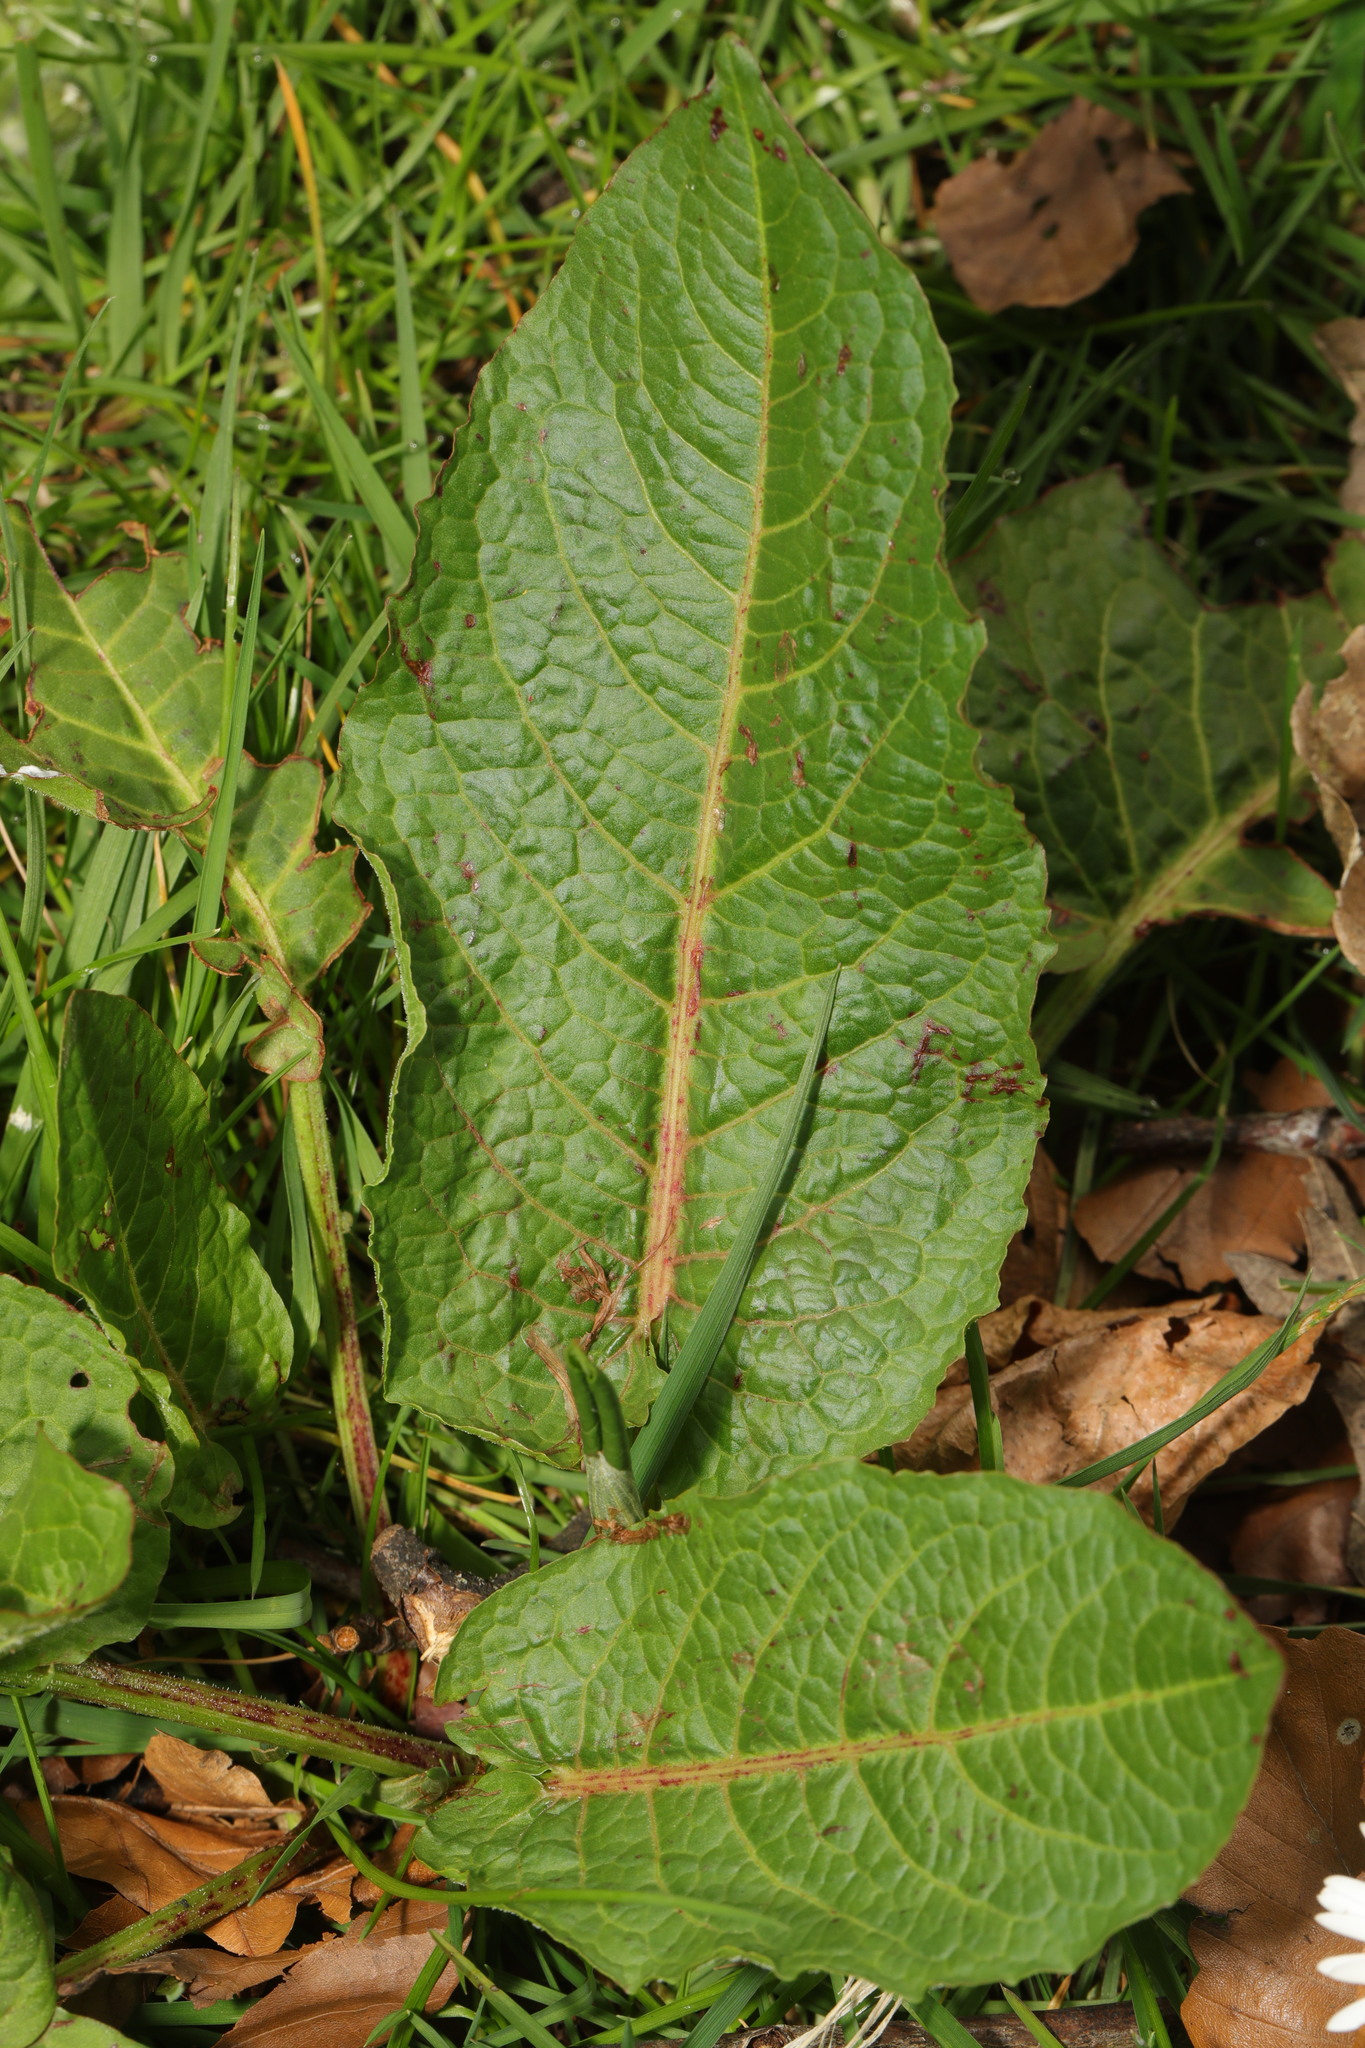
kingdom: Plantae
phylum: Tracheophyta
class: Magnoliopsida
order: Caryophyllales
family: Polygonaceae
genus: Rumex
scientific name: Rumex obtusifolius
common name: Bitter dock
